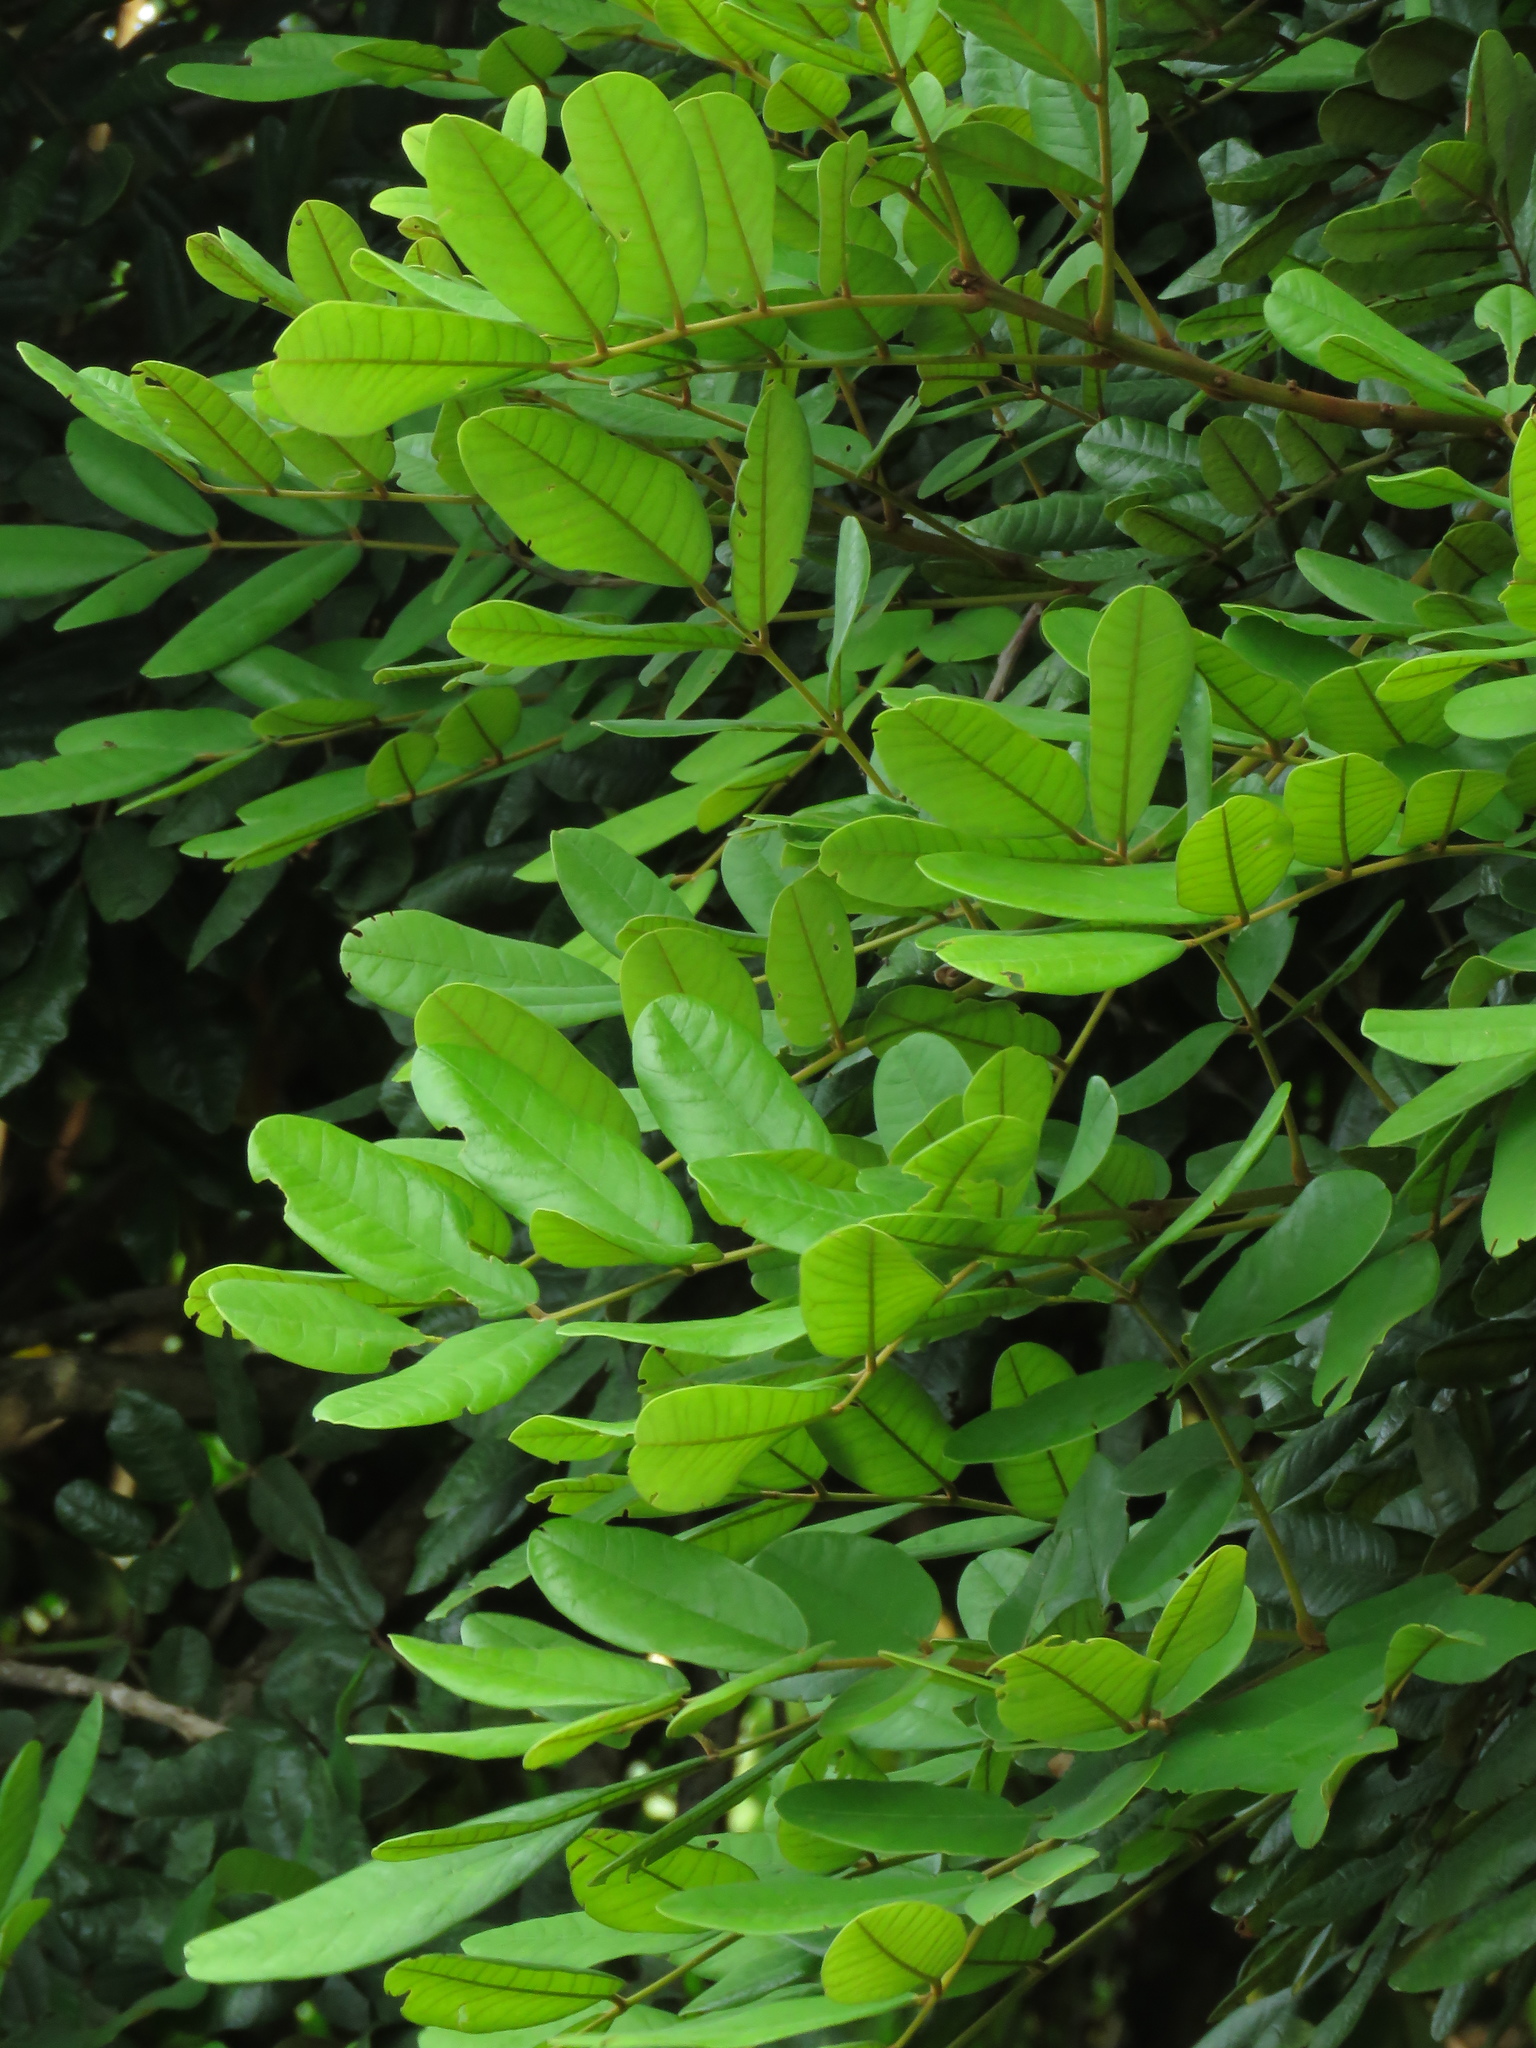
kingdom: Plantae
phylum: Tracheophyta
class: Magnoliopsida
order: Fabales
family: Fabaceae
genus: Andira
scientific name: Andira galeottiana
